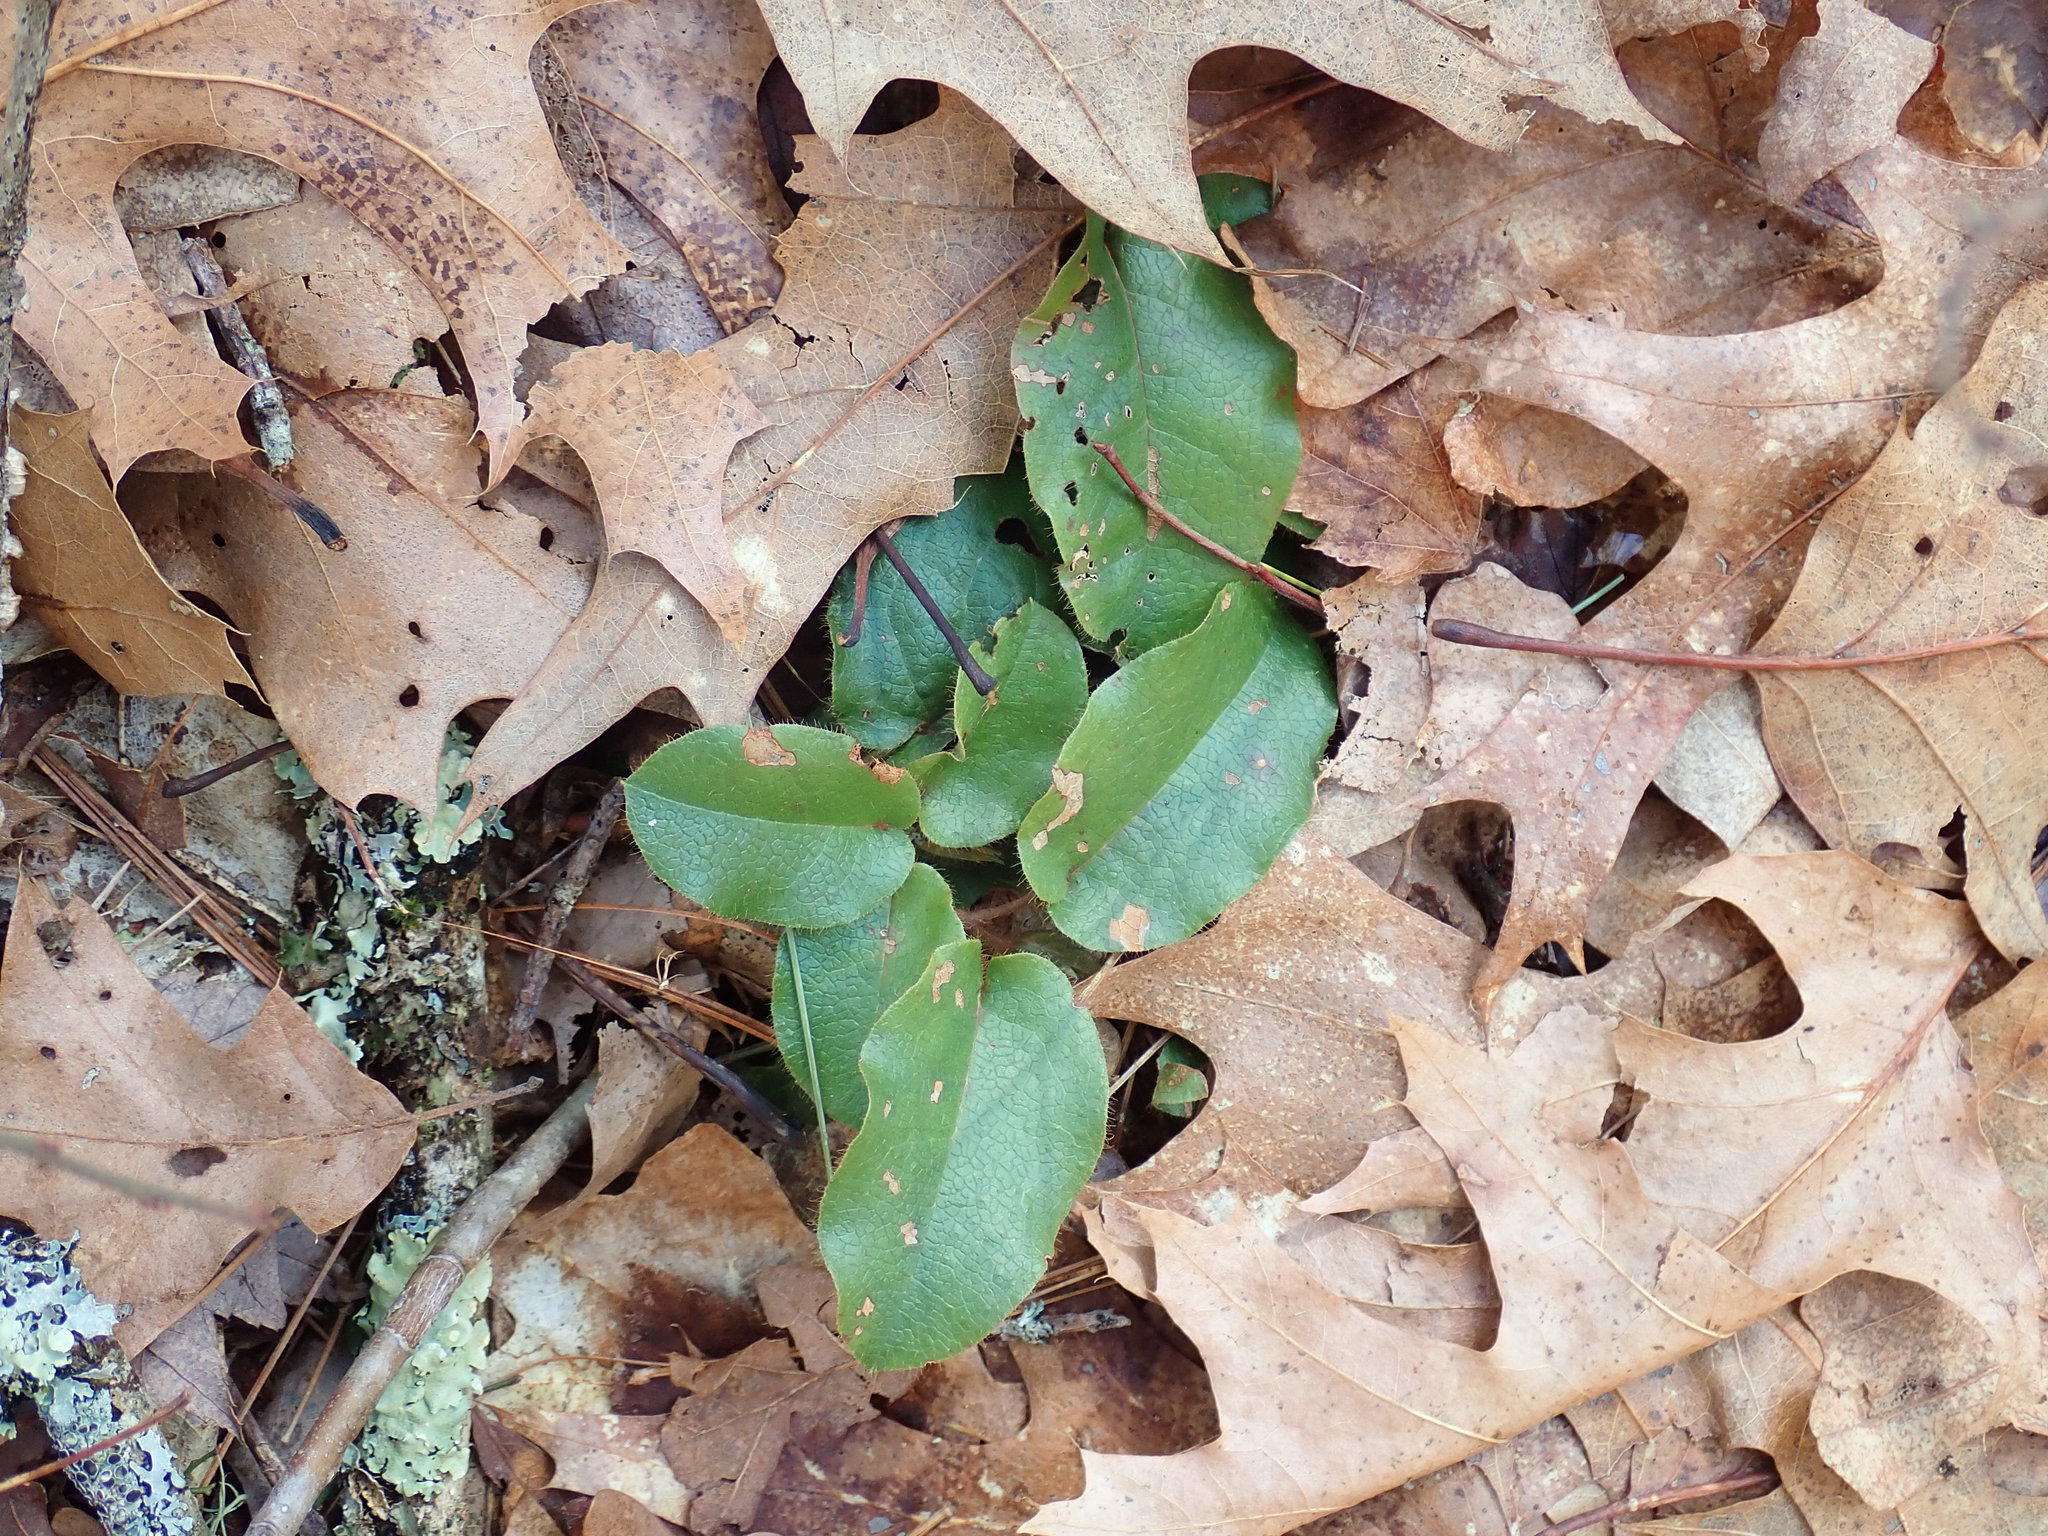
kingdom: Plantae
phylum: Tracheophyta
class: Magnoliopsida
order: Ericales
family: Ericaceae
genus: Epigaea
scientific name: Epigaea repens
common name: Gravelroot
